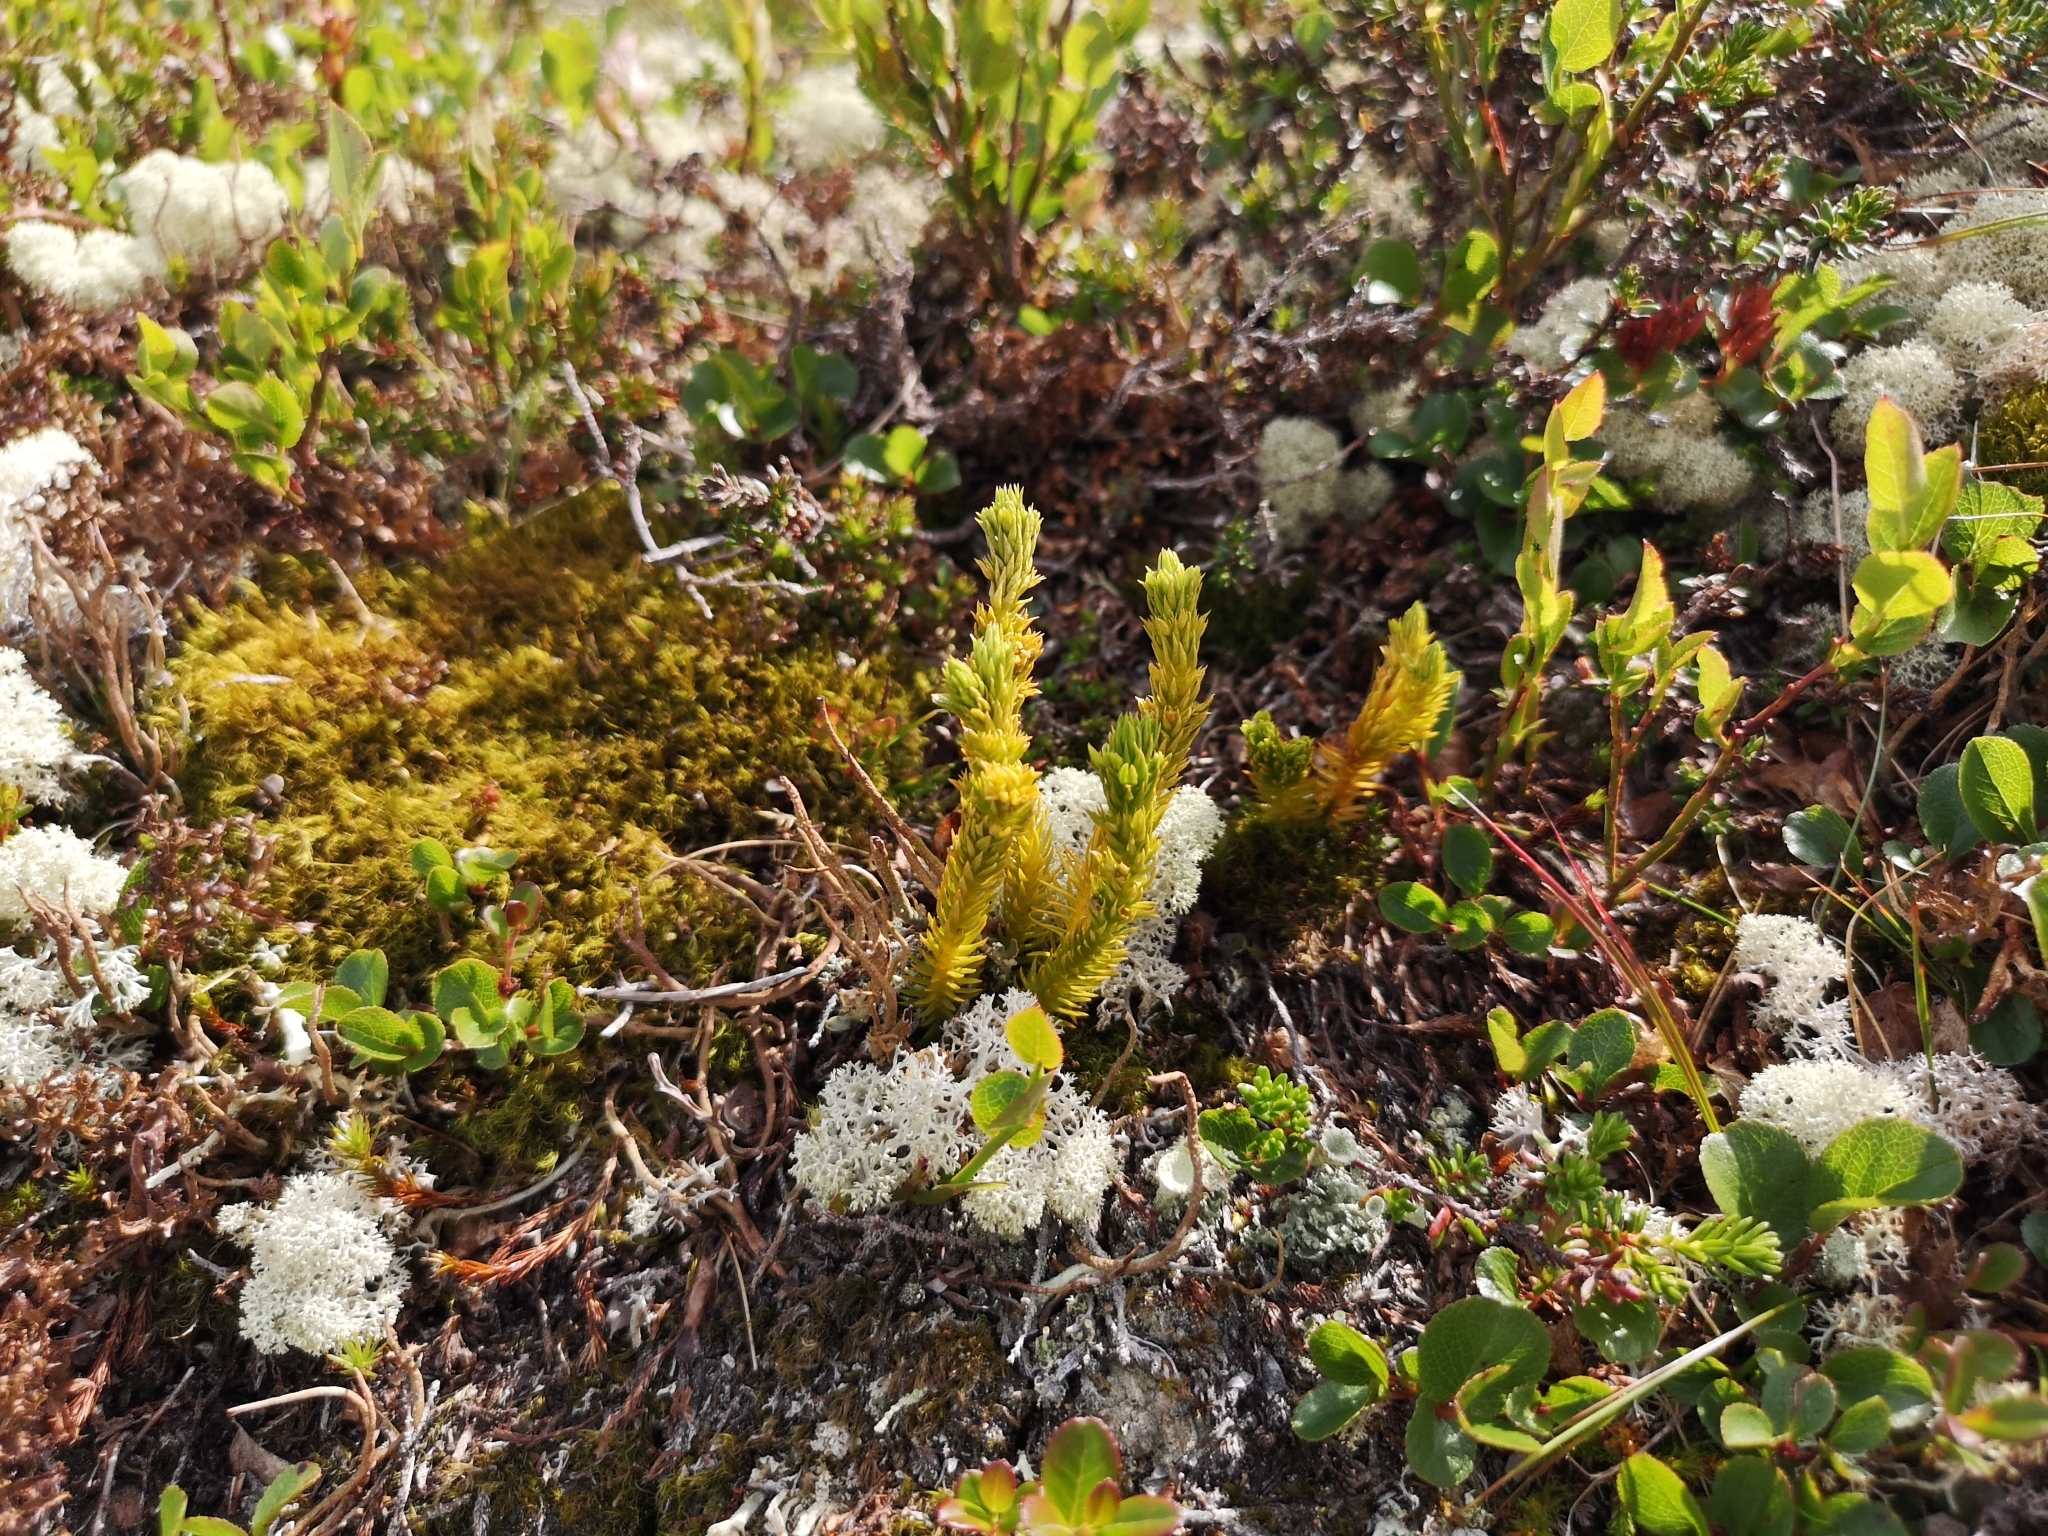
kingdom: Plantae
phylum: Tracheophyta
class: Lycopodiopsida
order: Lycopodiales
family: Lycopodiaceae
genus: Huperzia
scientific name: Huperzia selago
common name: Northern firmoss
